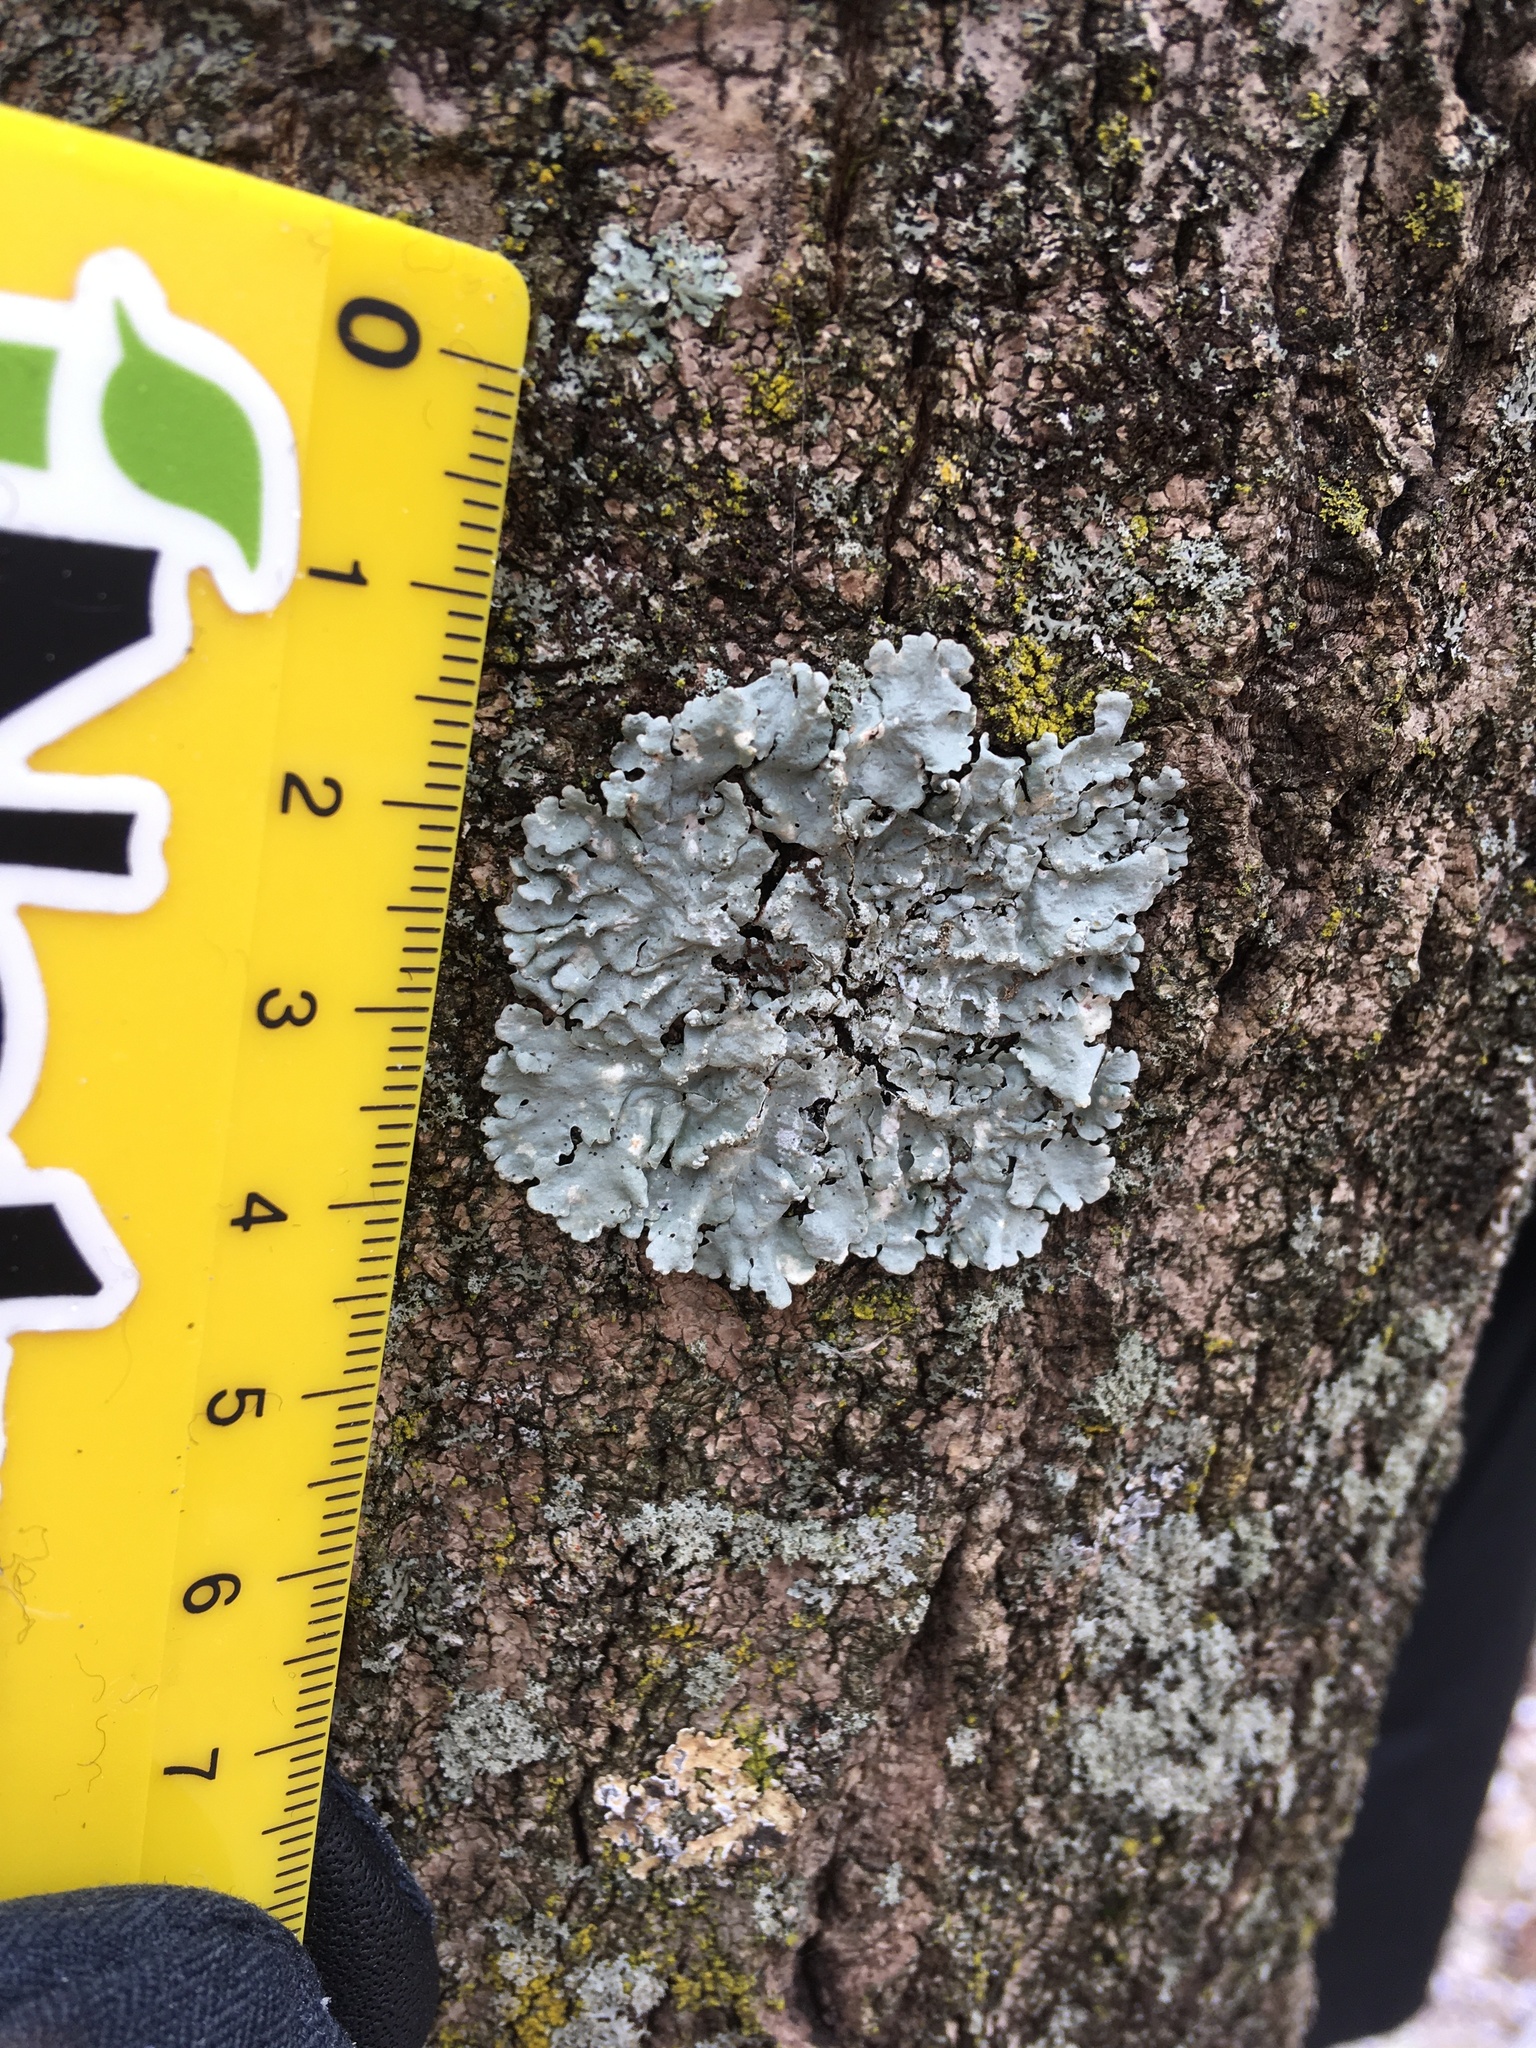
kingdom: Fungi
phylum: Ascomycota
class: Lecanoromycetes
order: Lecanorales
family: Parmeliaceae
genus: Myelochroa
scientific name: Myelochroa aurulenta
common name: Powdery axil-bristle lichen
